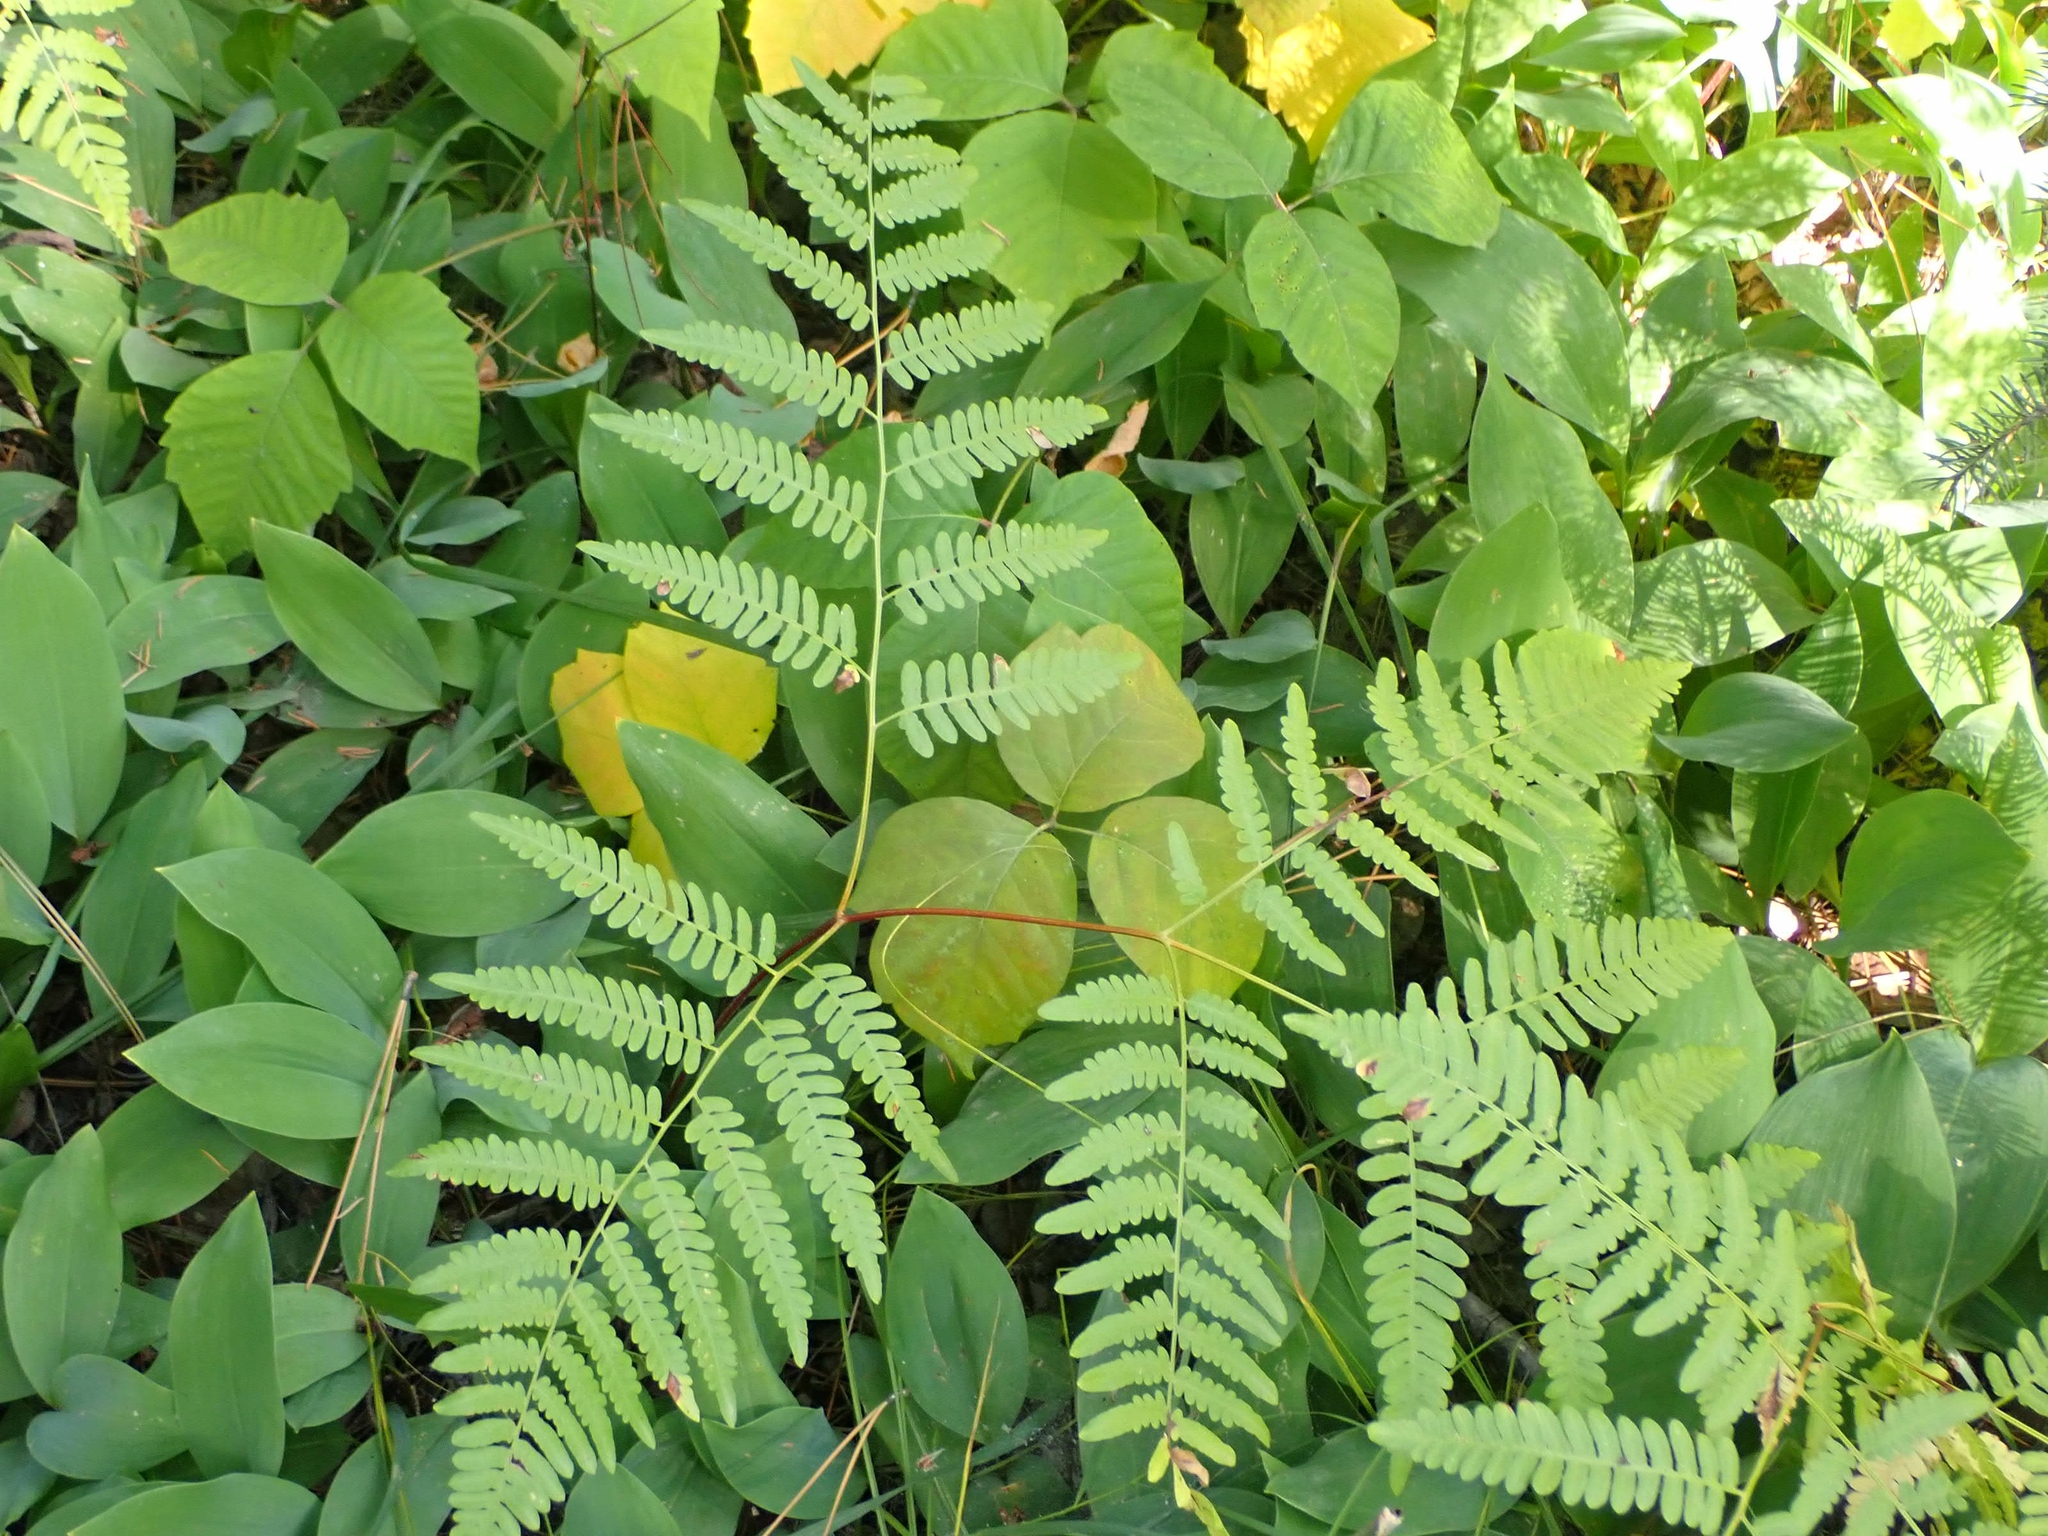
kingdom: Plantae
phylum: Tracheophyta
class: Polypodiopsida
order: Polypodiales
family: Dennstaedtiaceae
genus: Pteridium
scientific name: Pteridium aquilinum
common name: Bracken
